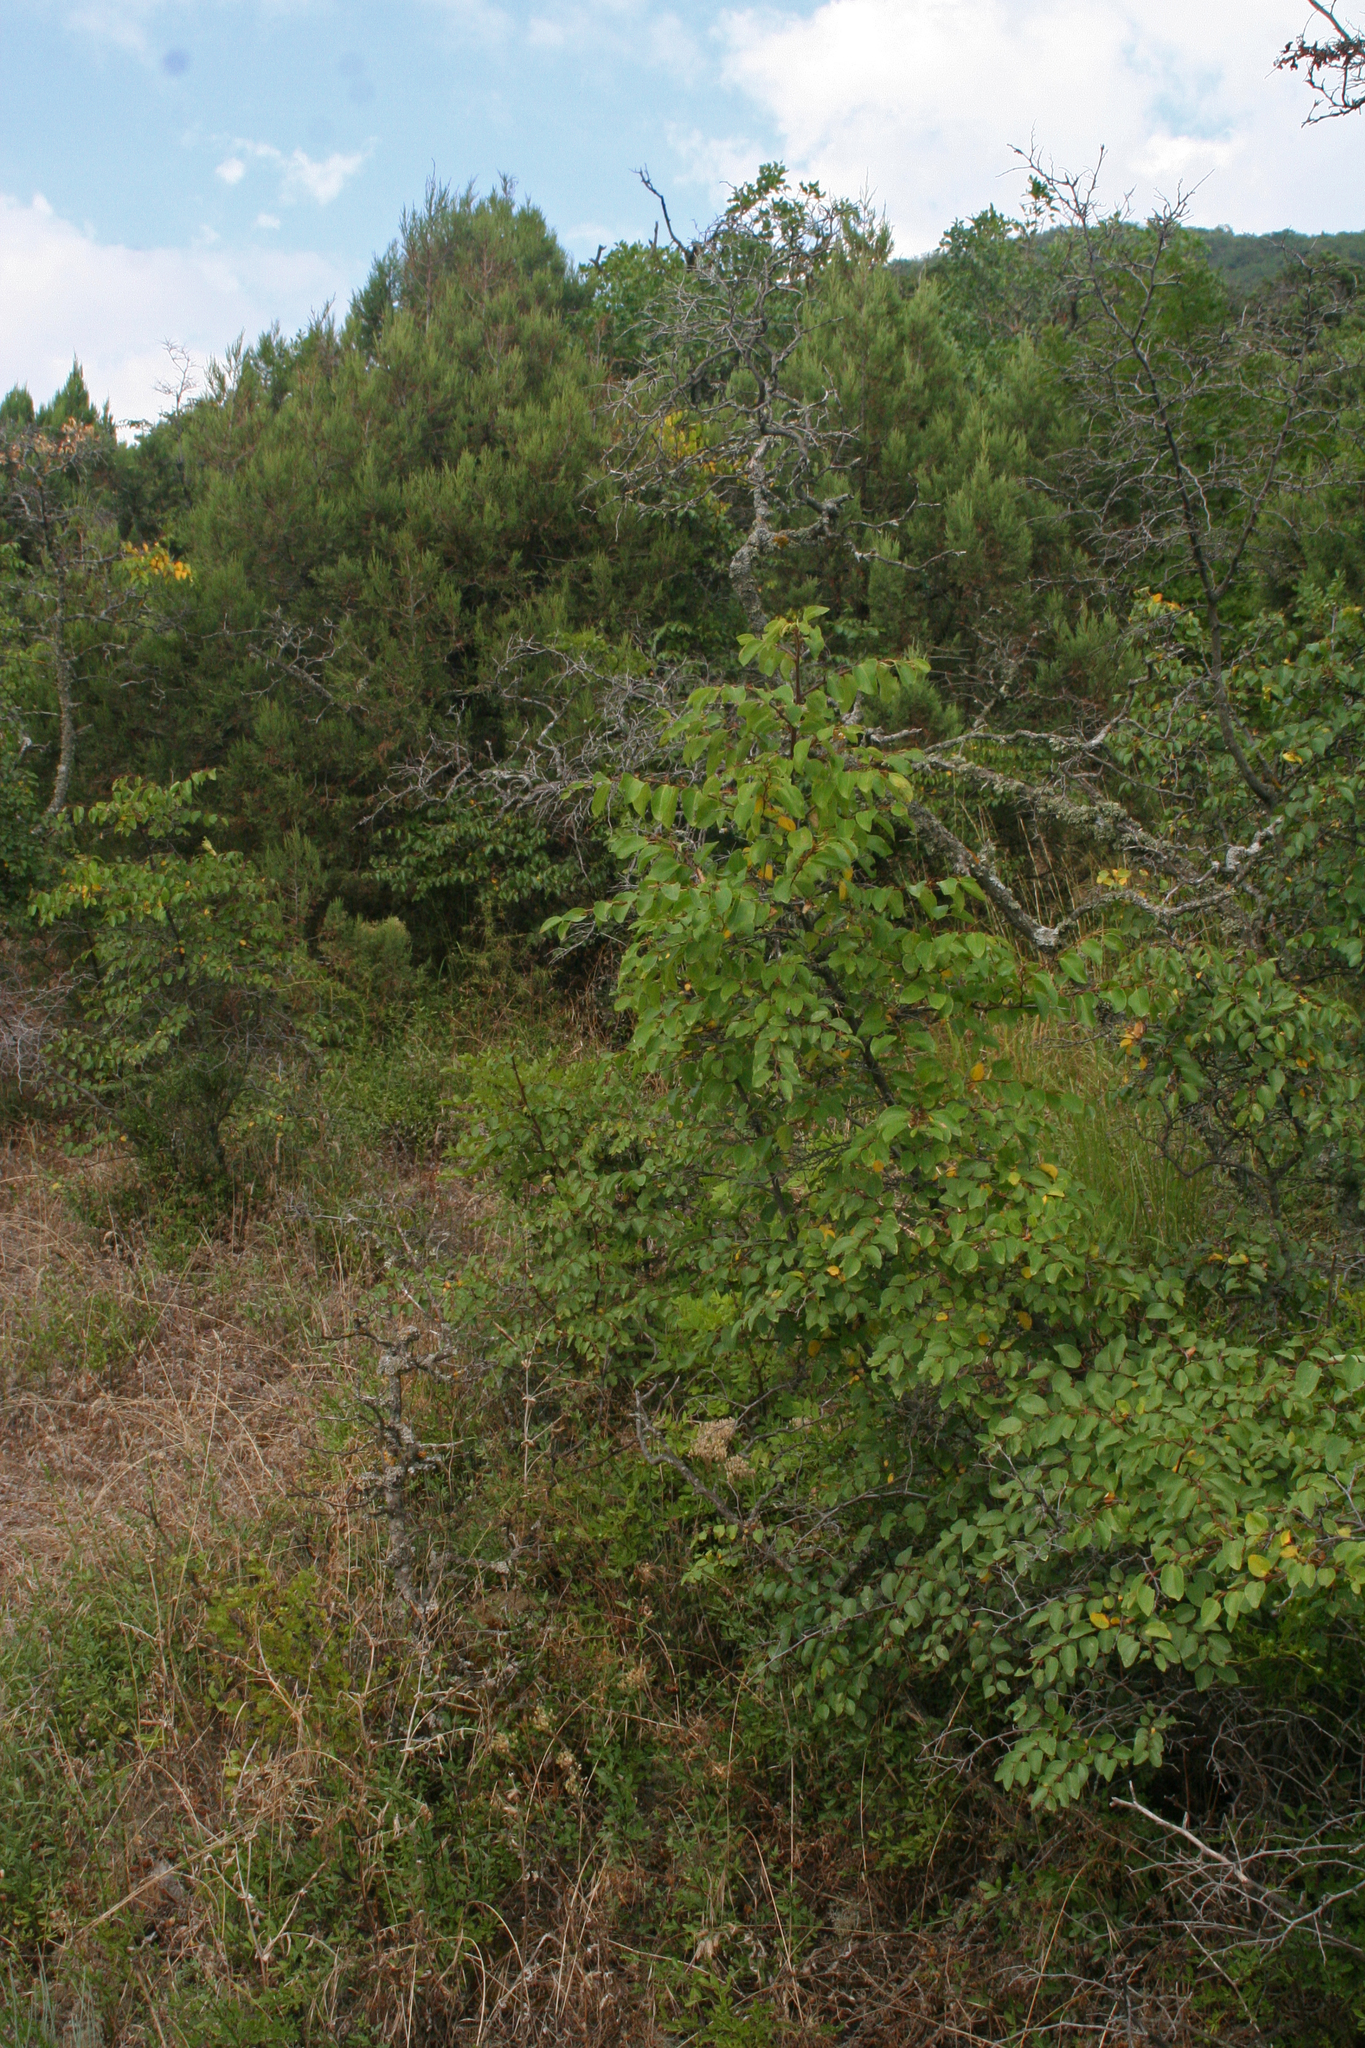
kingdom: Plantae
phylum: Tracheophyta
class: Magnoliopsida
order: Rosales
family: Rhamnaceae
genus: Paliurus
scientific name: Paliurus spina-christi
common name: Jeruselem thorn
